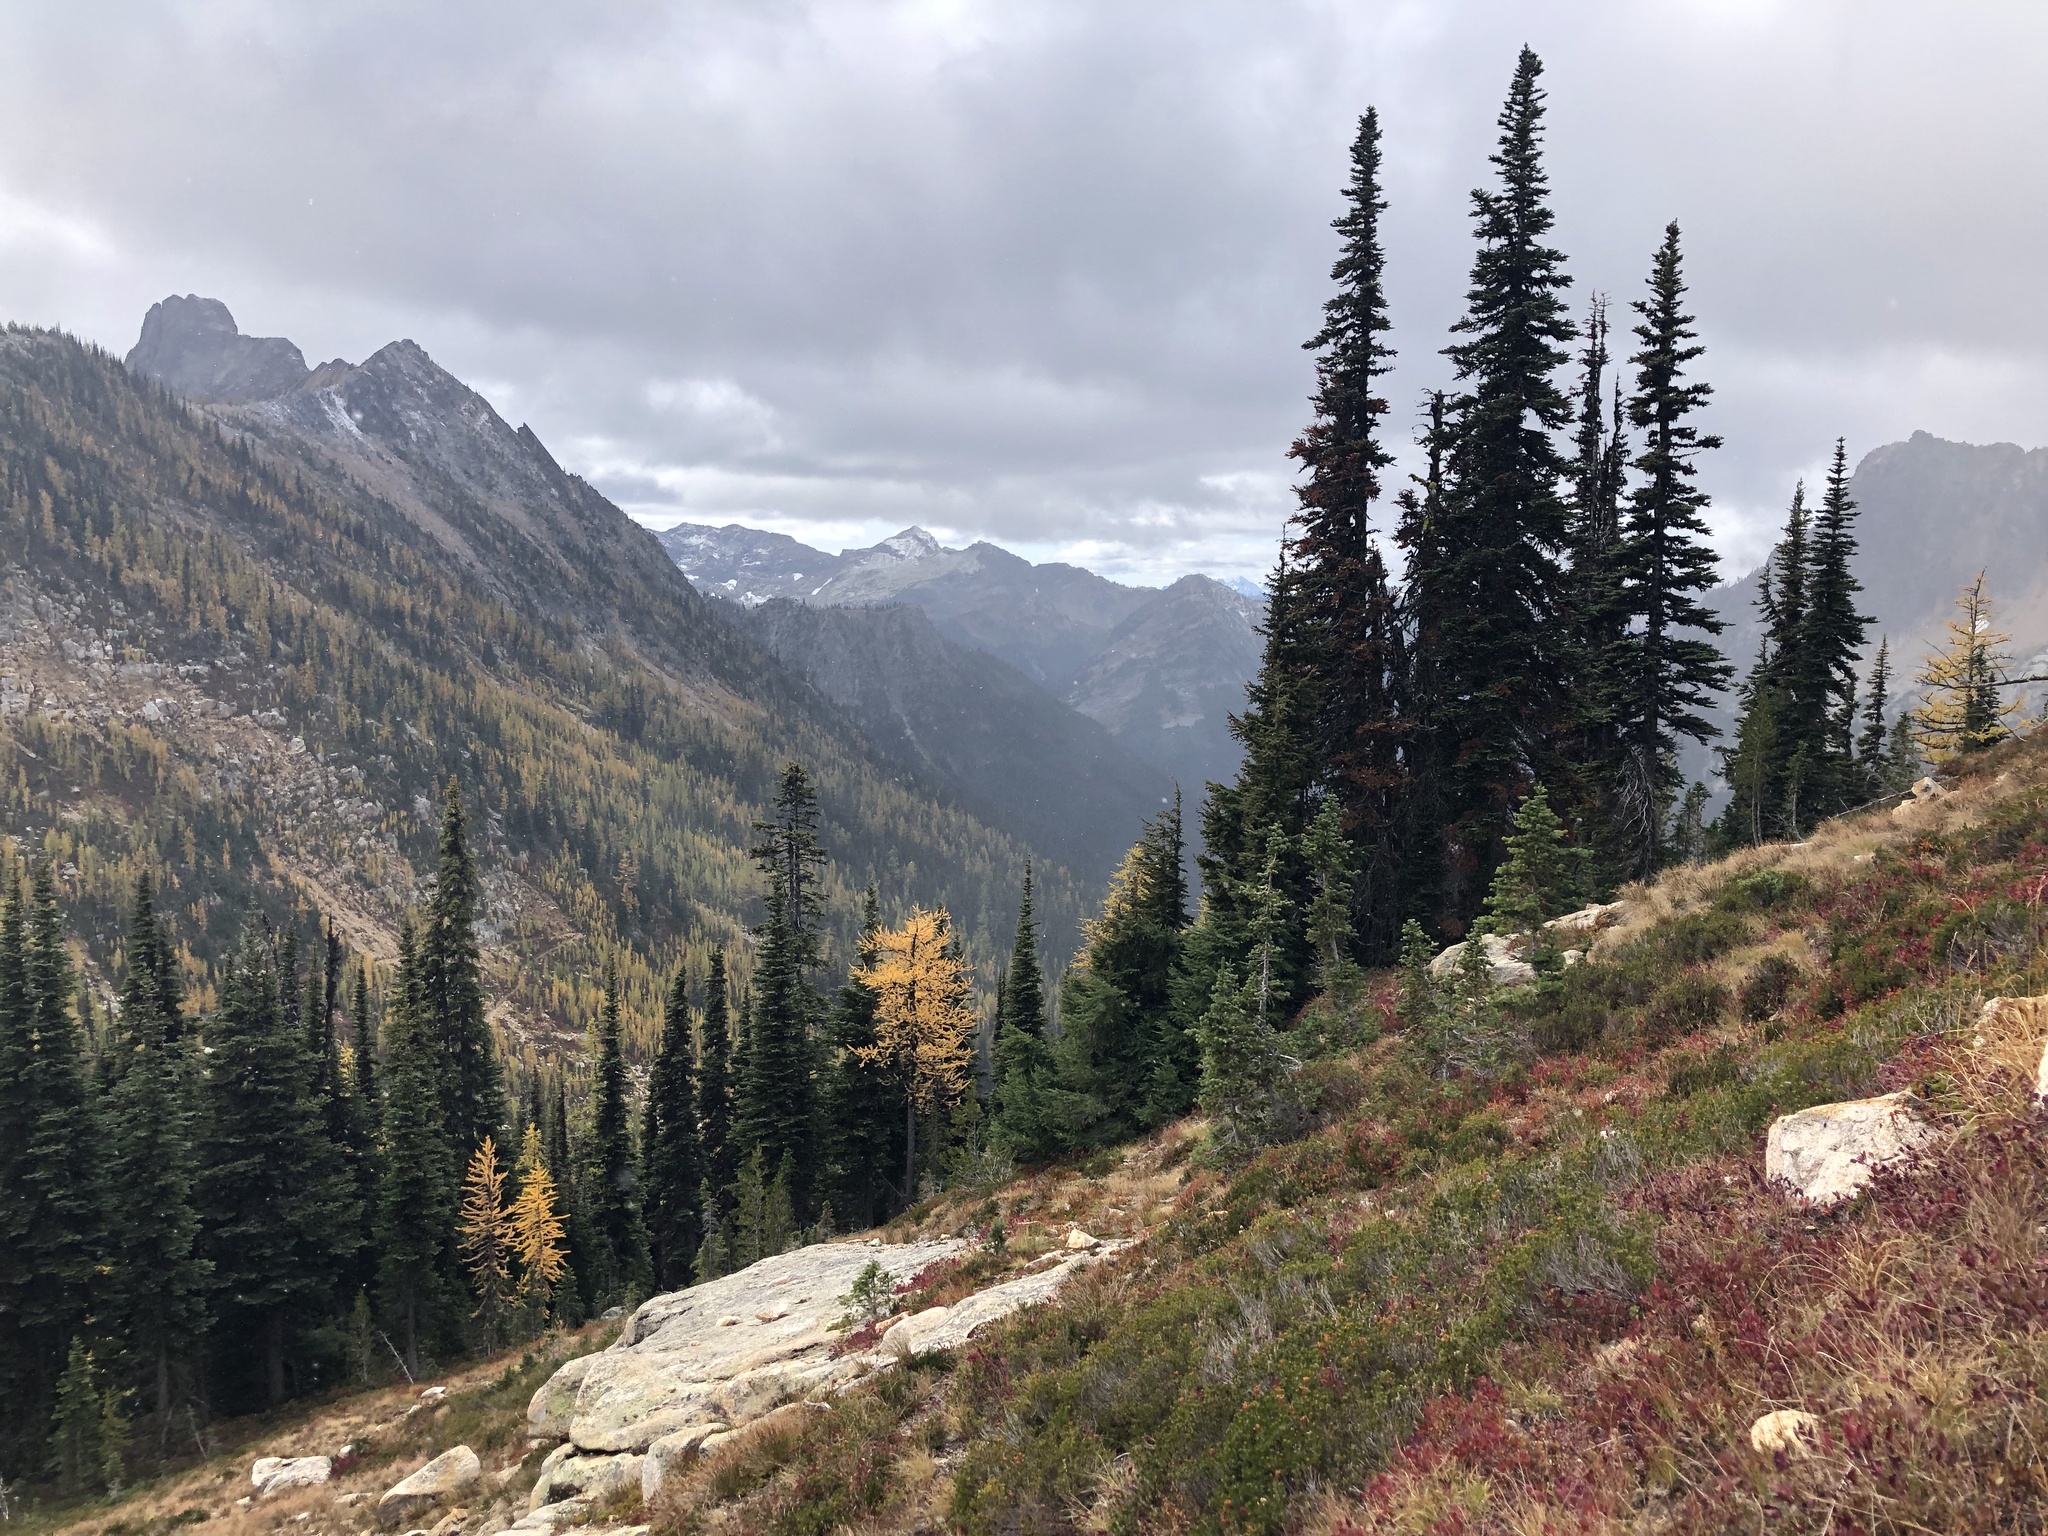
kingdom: Plantae
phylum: Tracheophyta
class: Pinopsida
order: Pinales
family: Pinaceae
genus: Abies
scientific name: Abies lasiocarpa
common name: Subalpine fir
